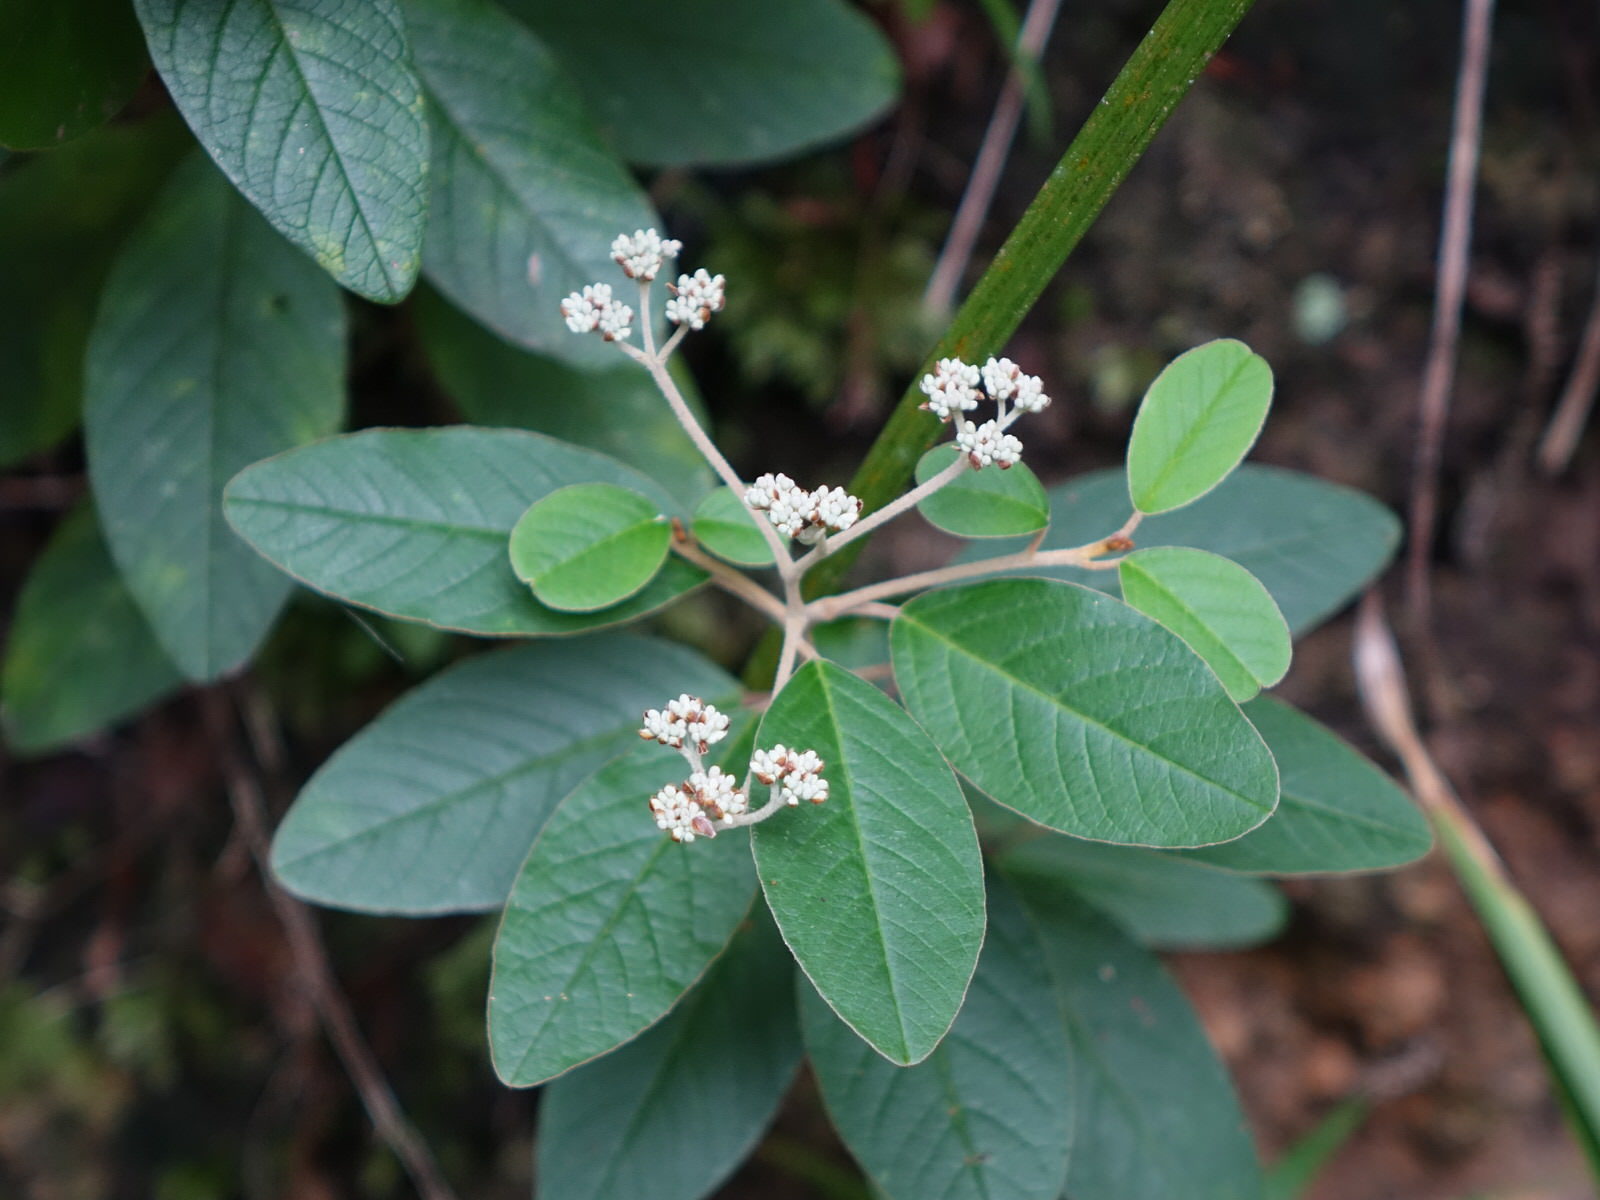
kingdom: Plantae
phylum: Tracheophyta
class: Magnoliopsida
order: Rosales
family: Rhamnaceae
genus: Pomaderris
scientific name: Pomaderris kumeraho
